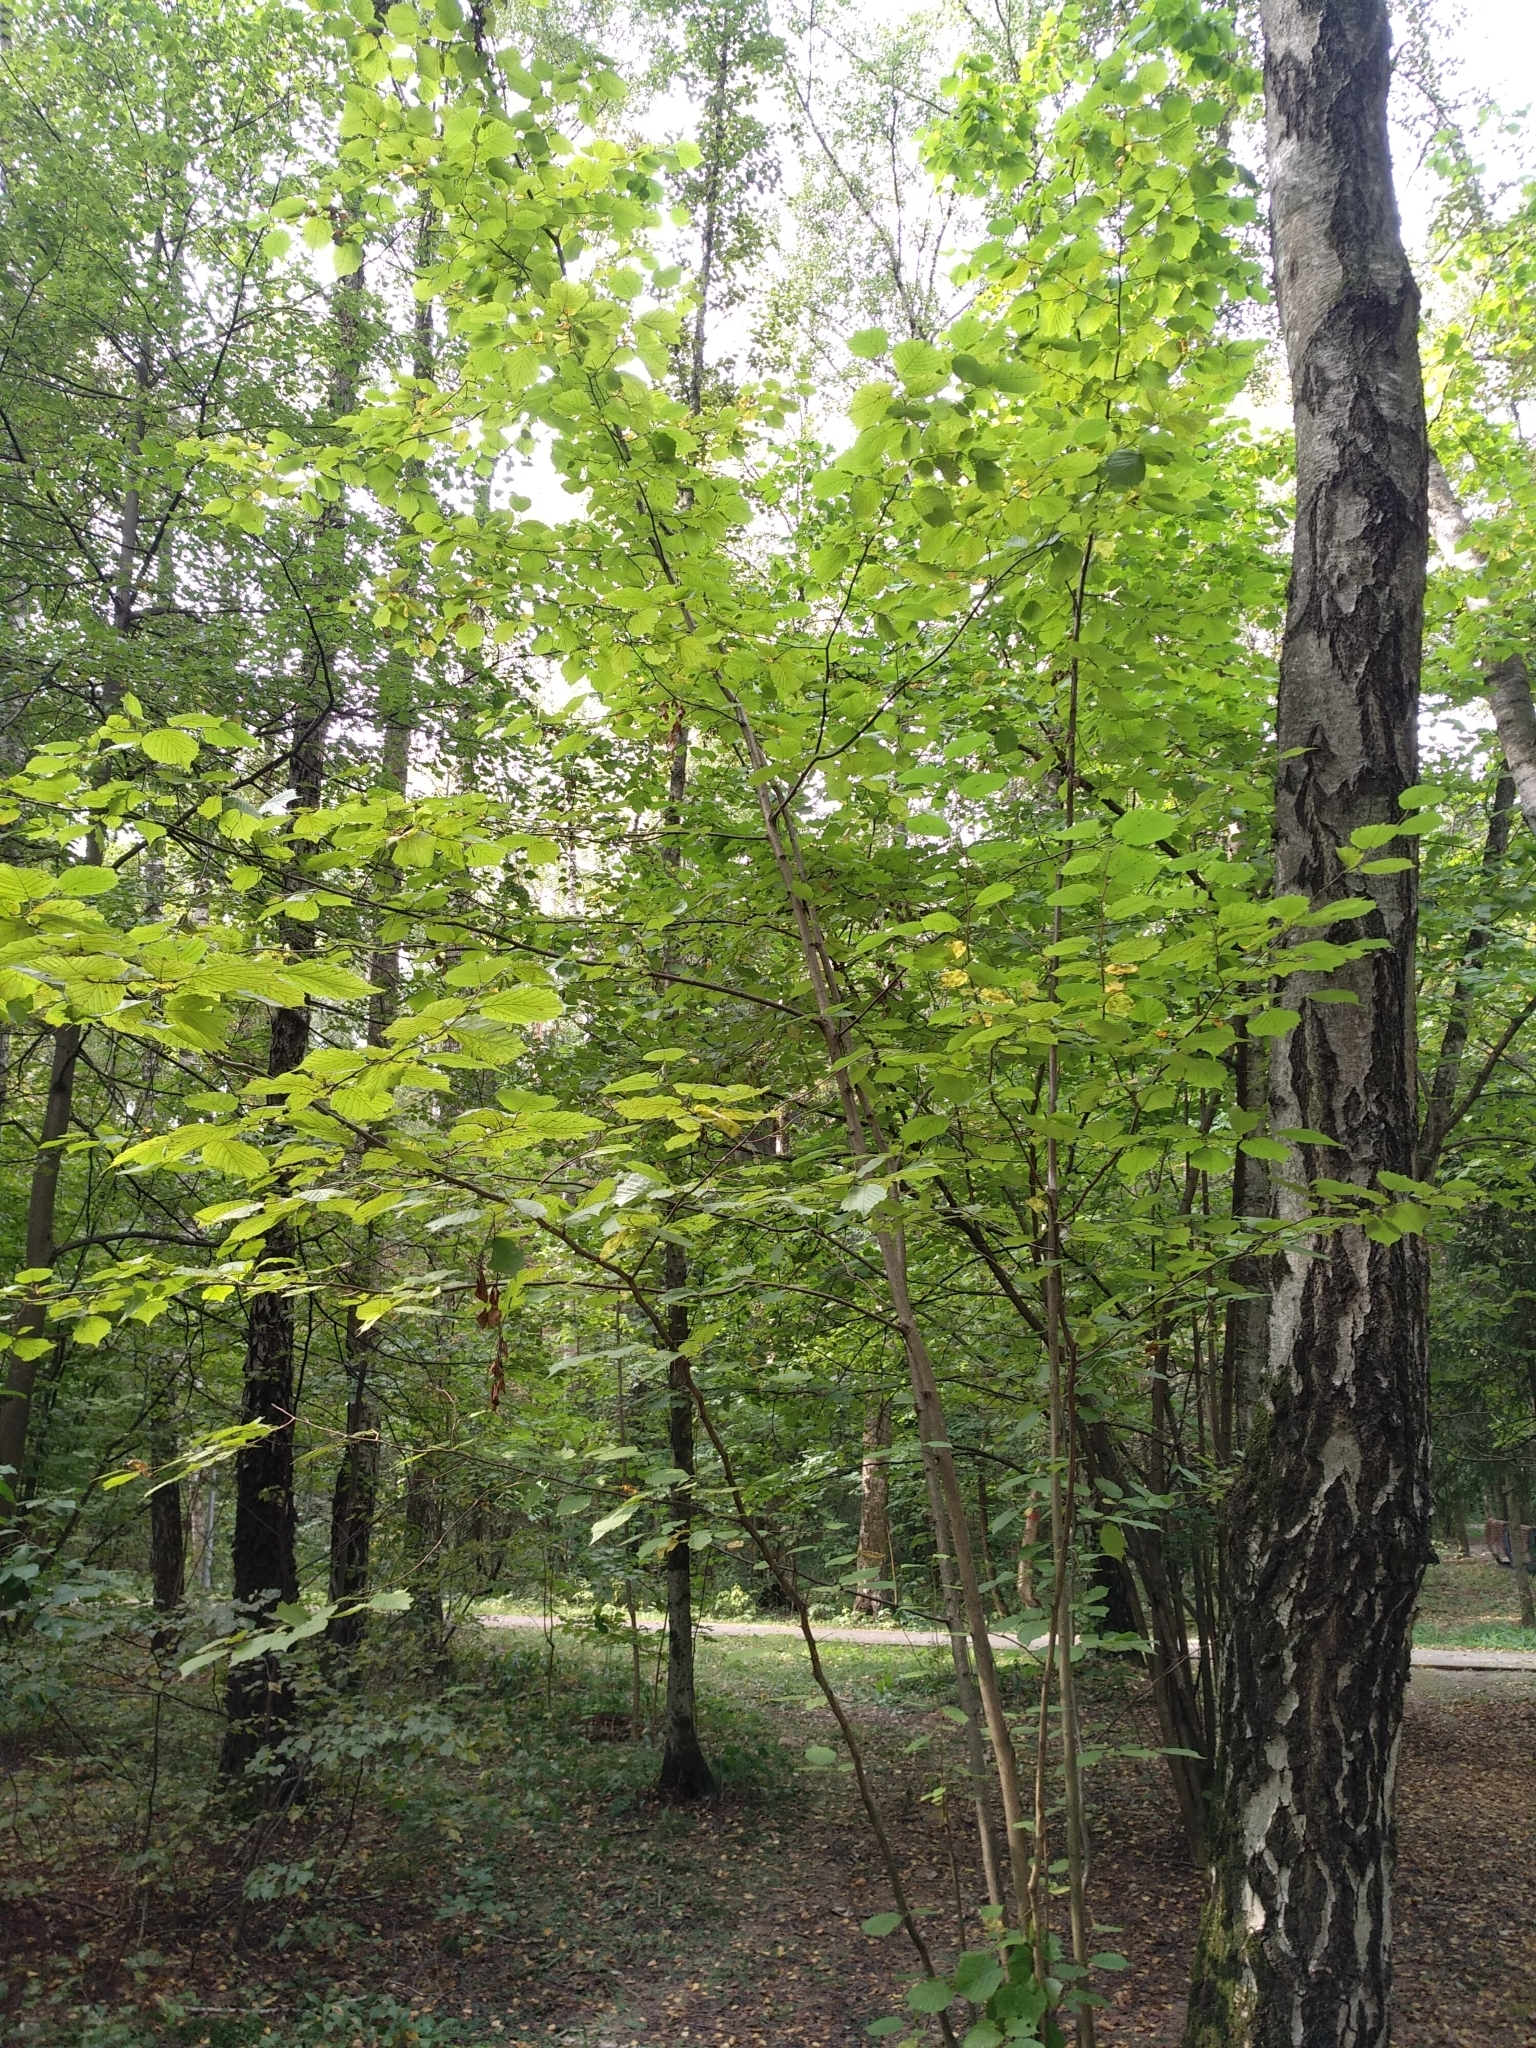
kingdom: Plantae
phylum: Tracheophyta
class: Magnoliopsida
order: Fagales
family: Betulaceae
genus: Corylus
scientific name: Corylus avellana
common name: European hazel
